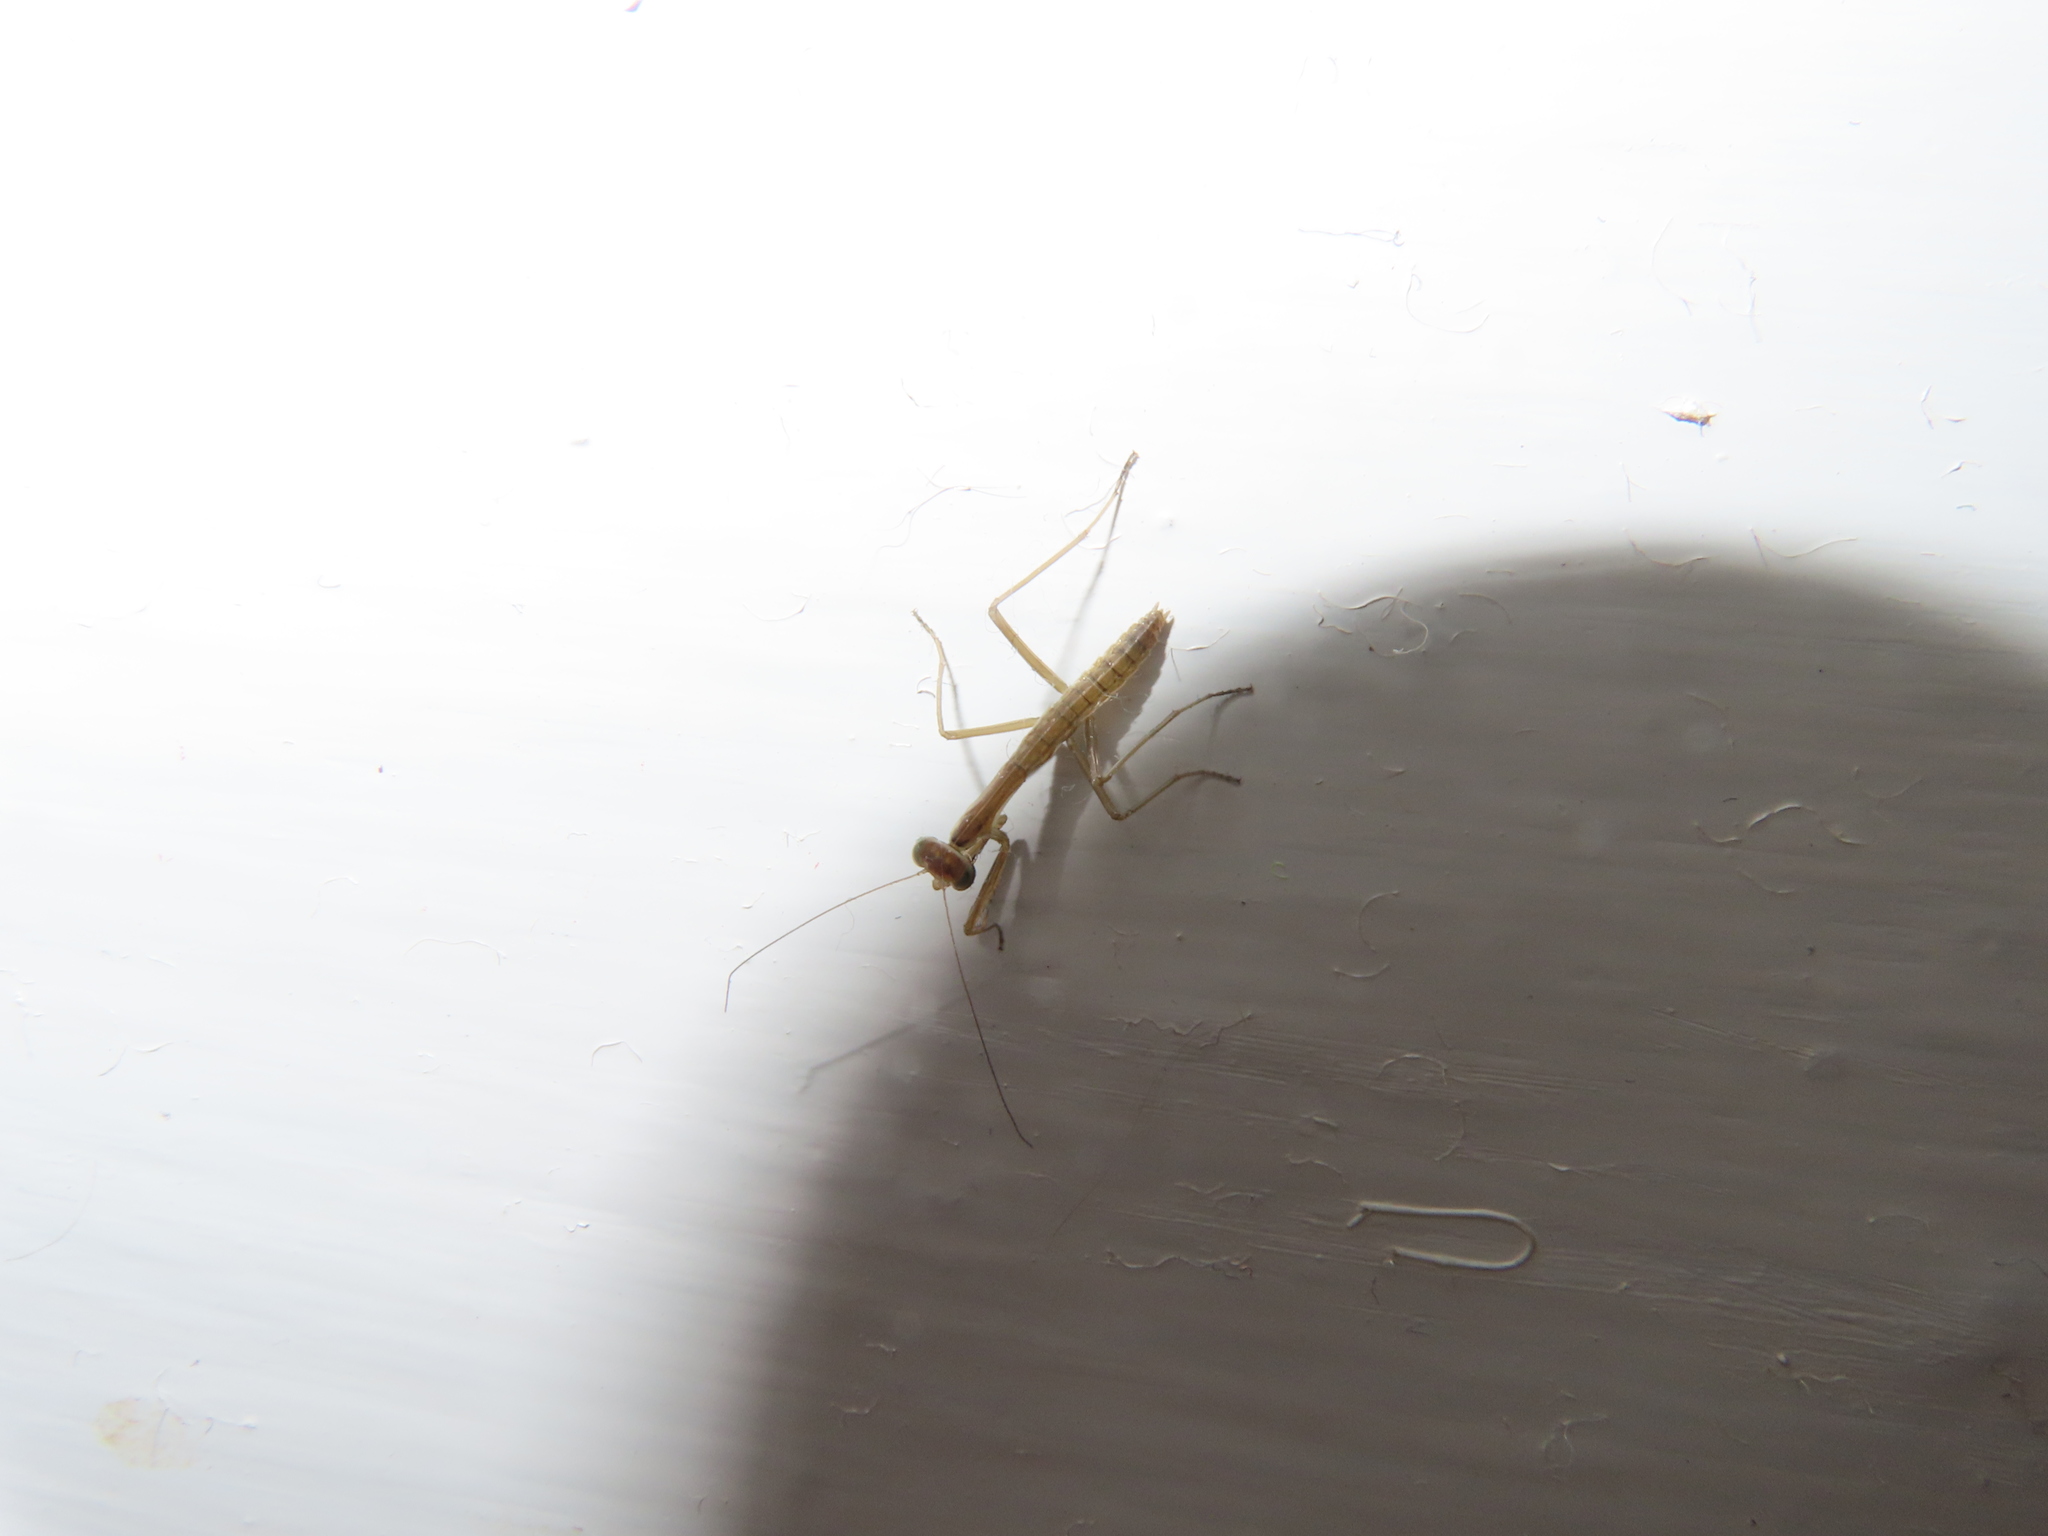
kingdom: Animalia
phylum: Arthropoda
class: Insecta
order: Mantodea
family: Mantidae
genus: Tenodera
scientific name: Tenodera sinensis
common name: Chinese mantis
